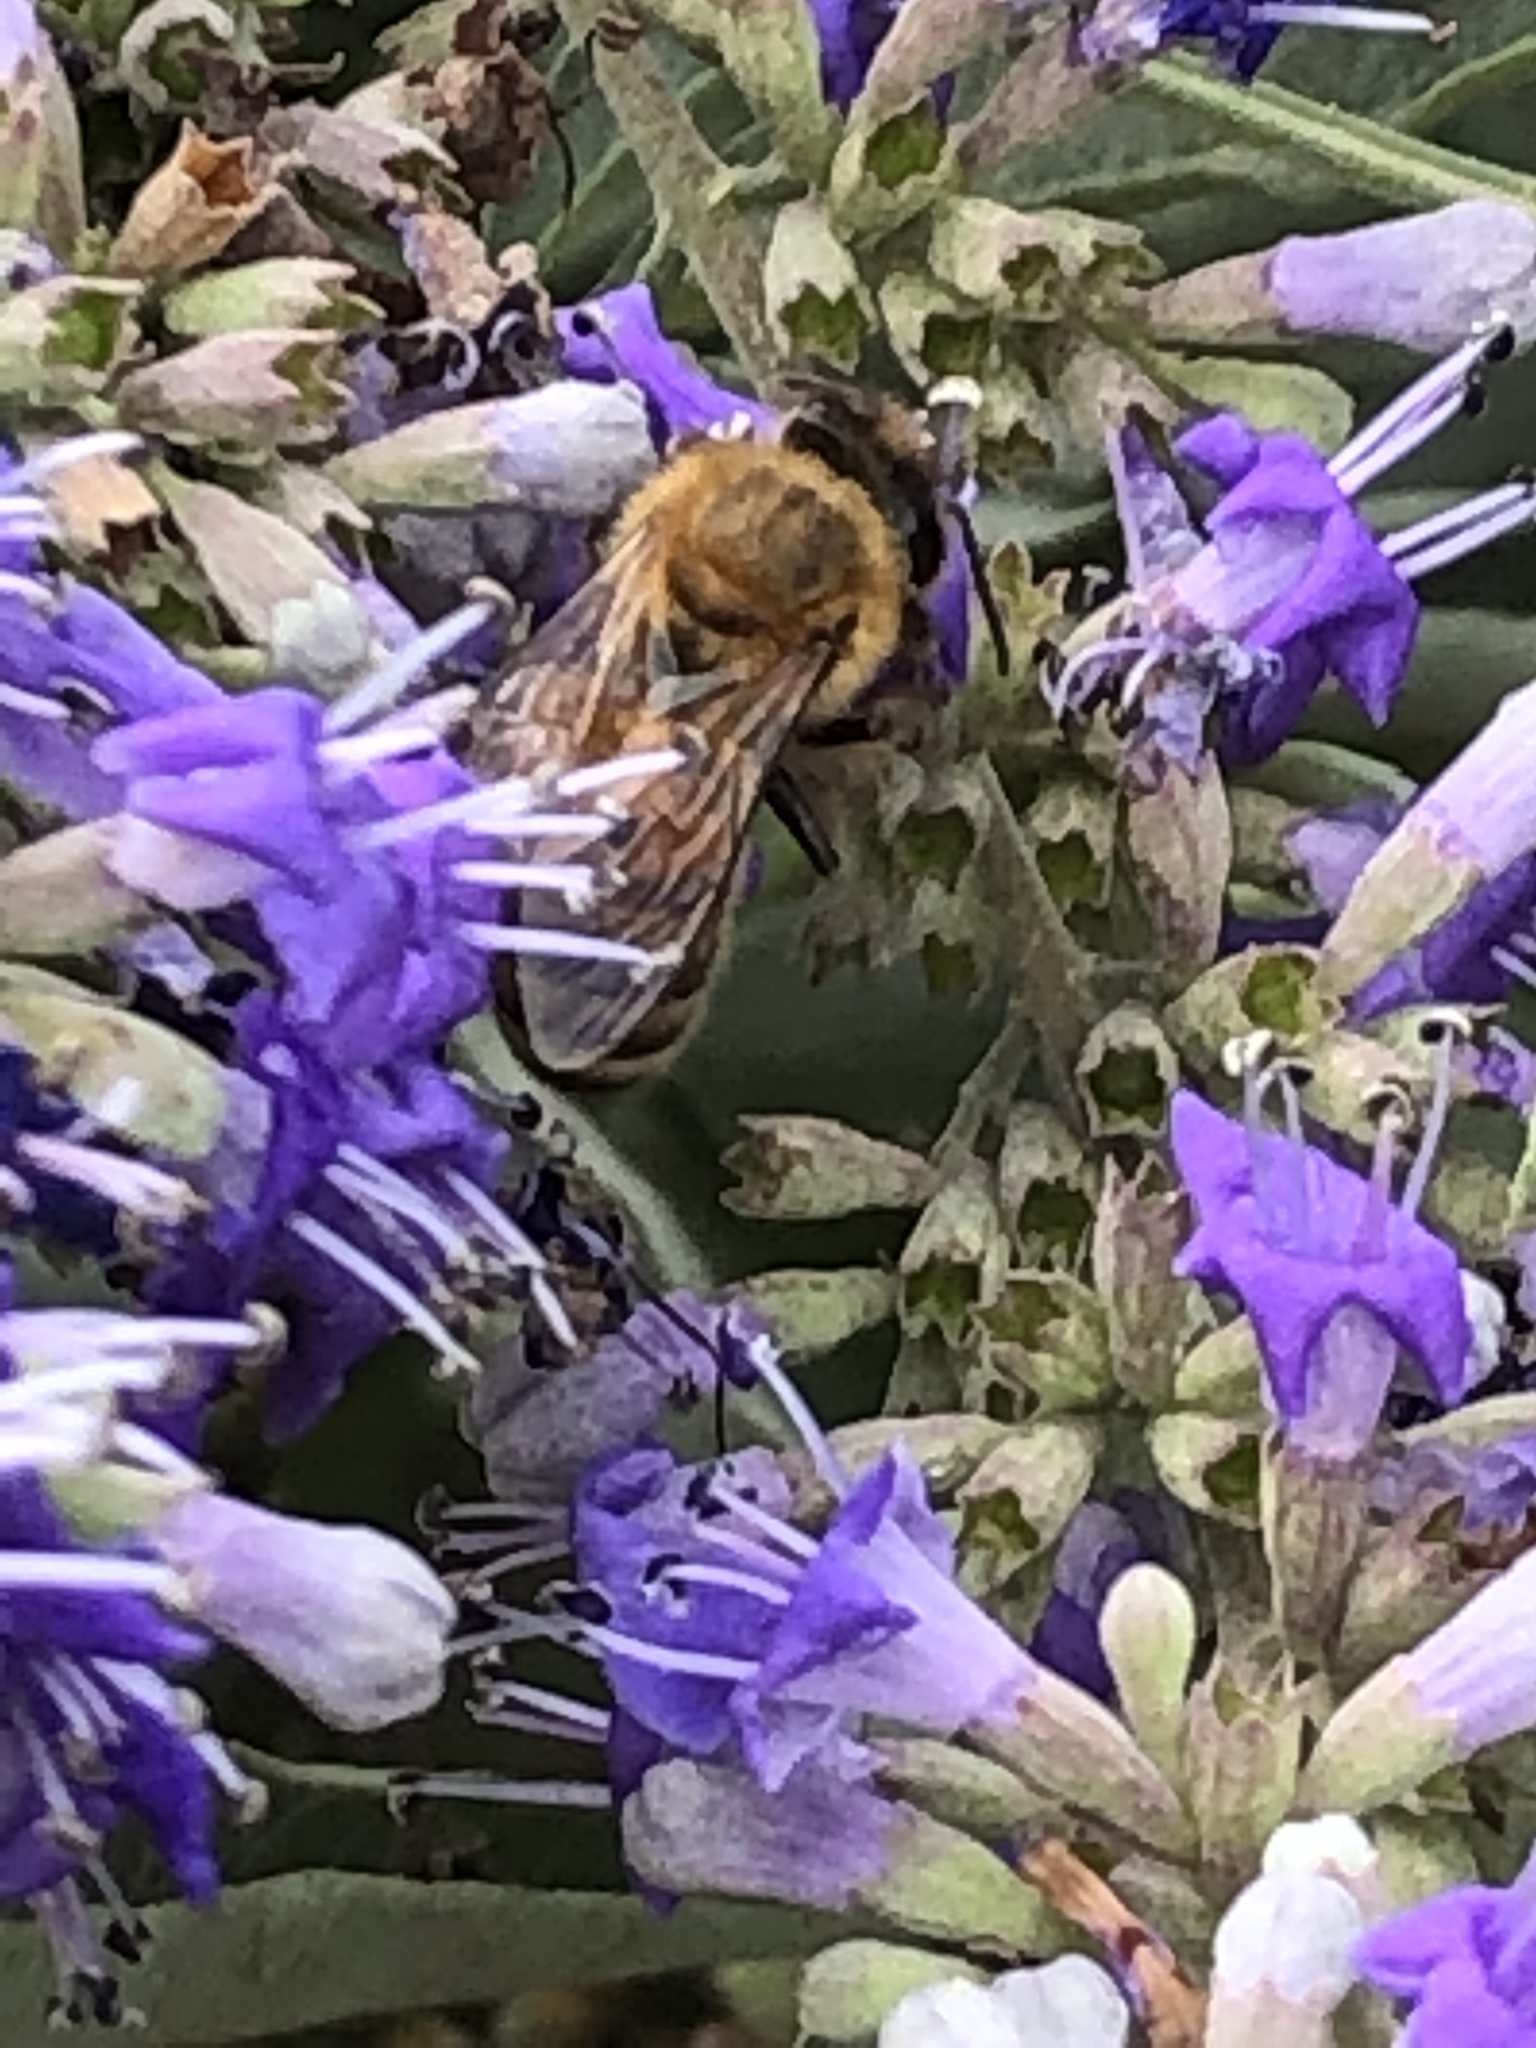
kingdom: Animalia
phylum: Arthropoda
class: Insecta
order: Hymenoptera
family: Apidae
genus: Apis
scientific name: Apis mellifera
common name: Honey bee
